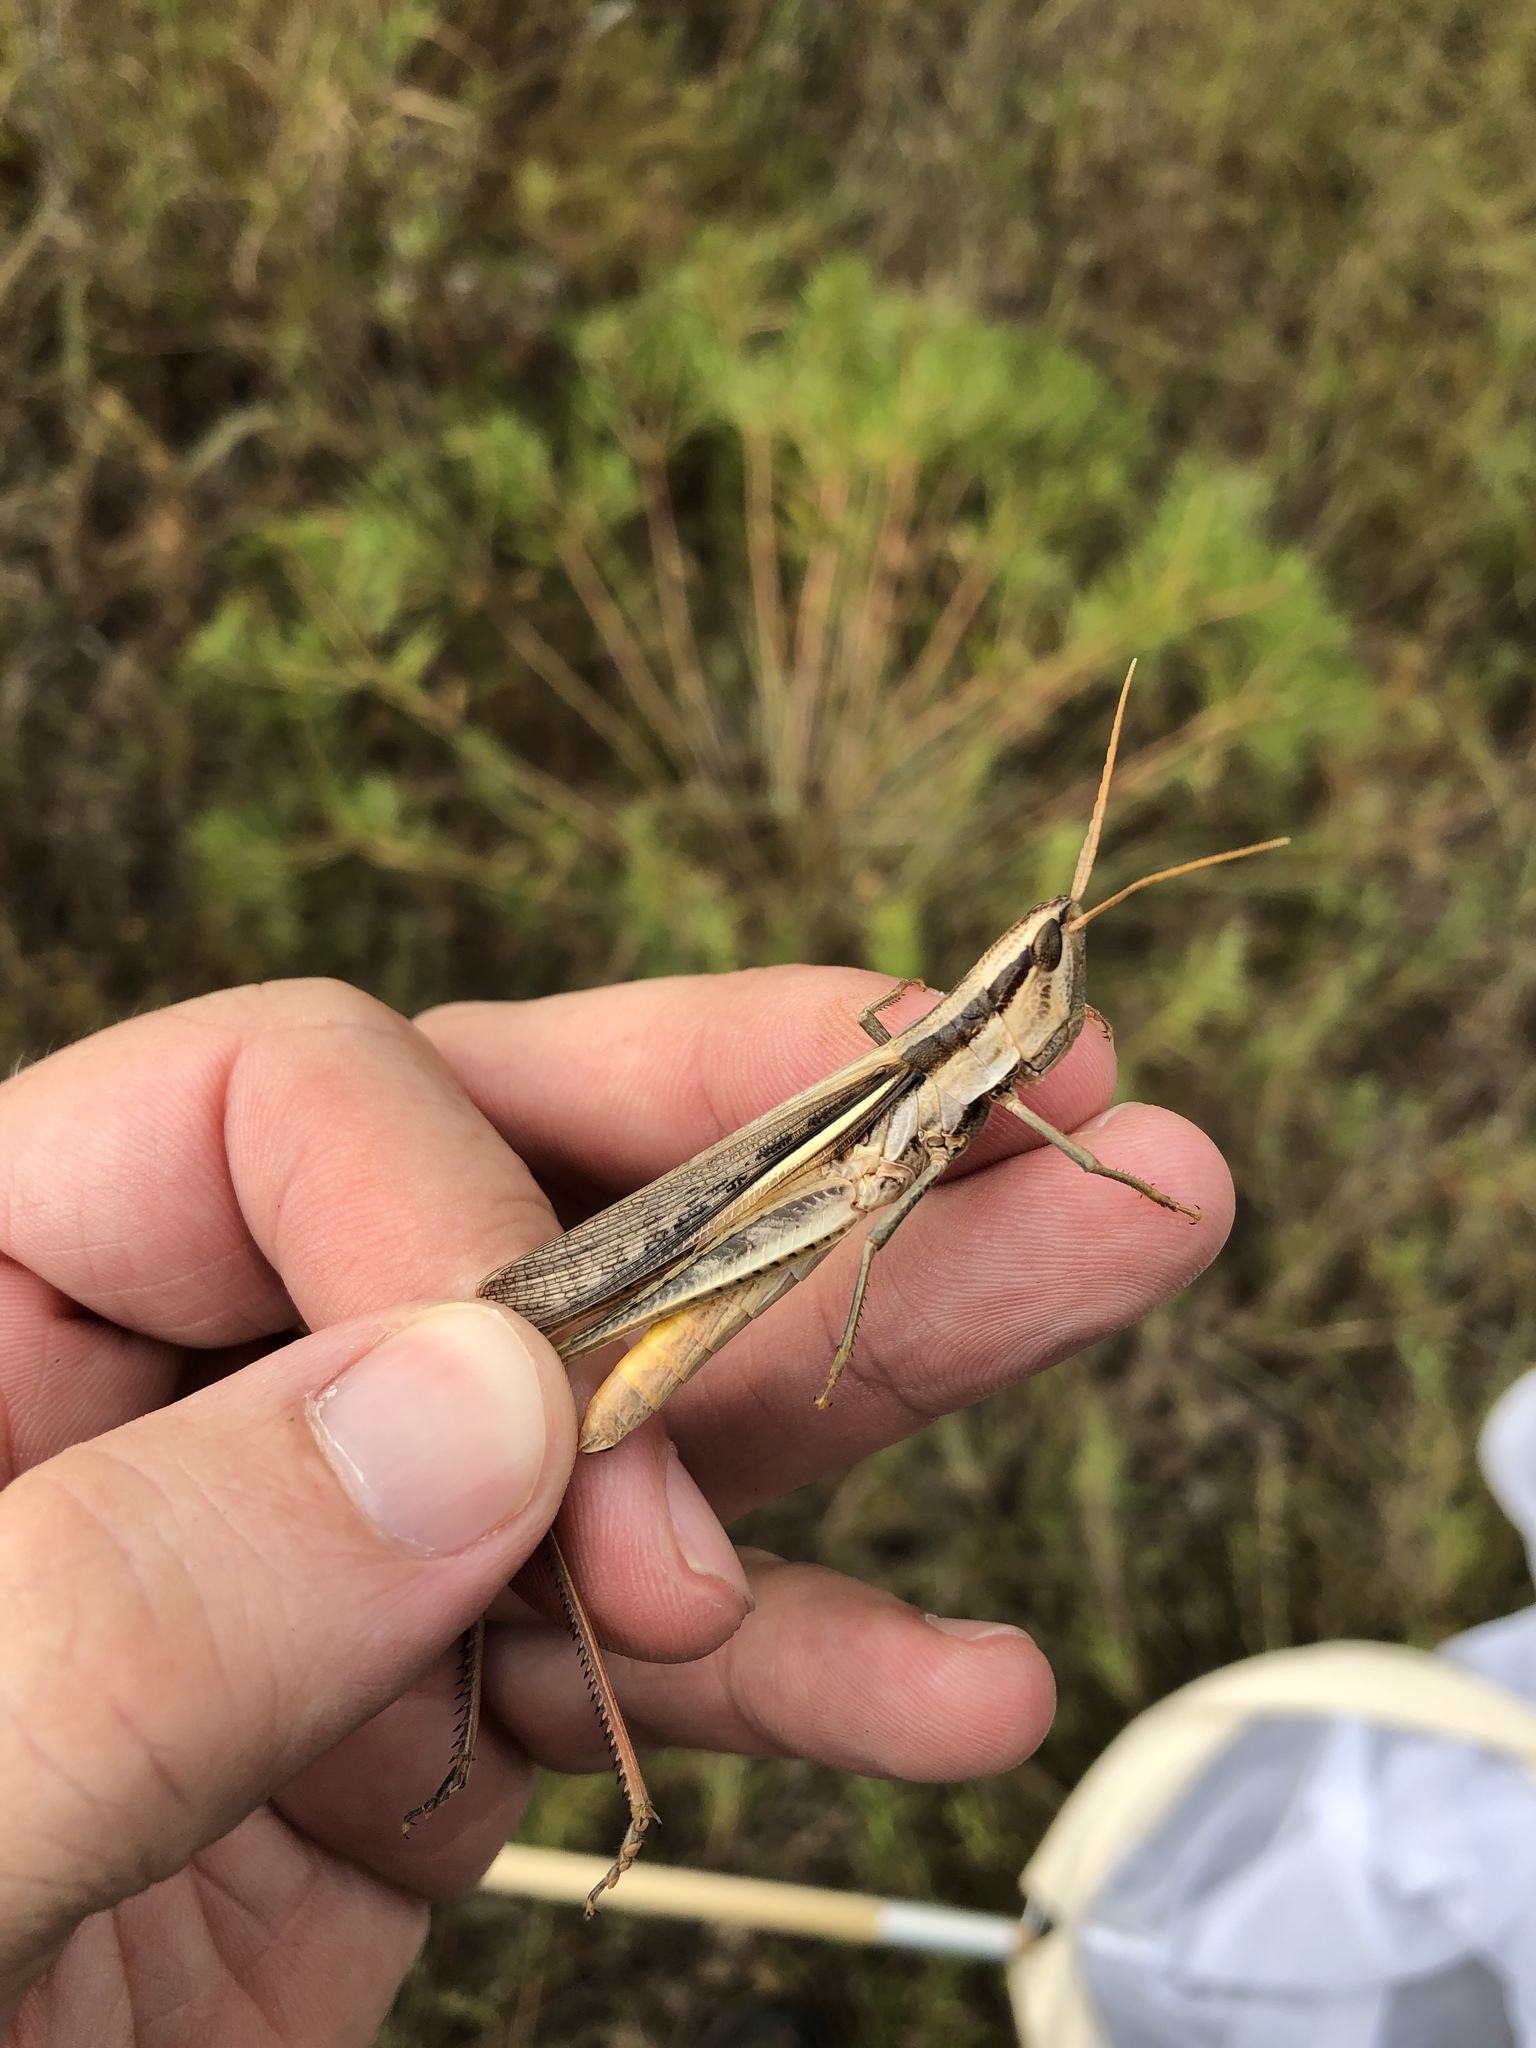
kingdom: Animalia
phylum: Arthropoda
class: Insecta
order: Orthoptera
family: Acrididae
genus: Mermiria
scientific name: Mermiria bivittata
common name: Two-striped mermiria grasshopper
